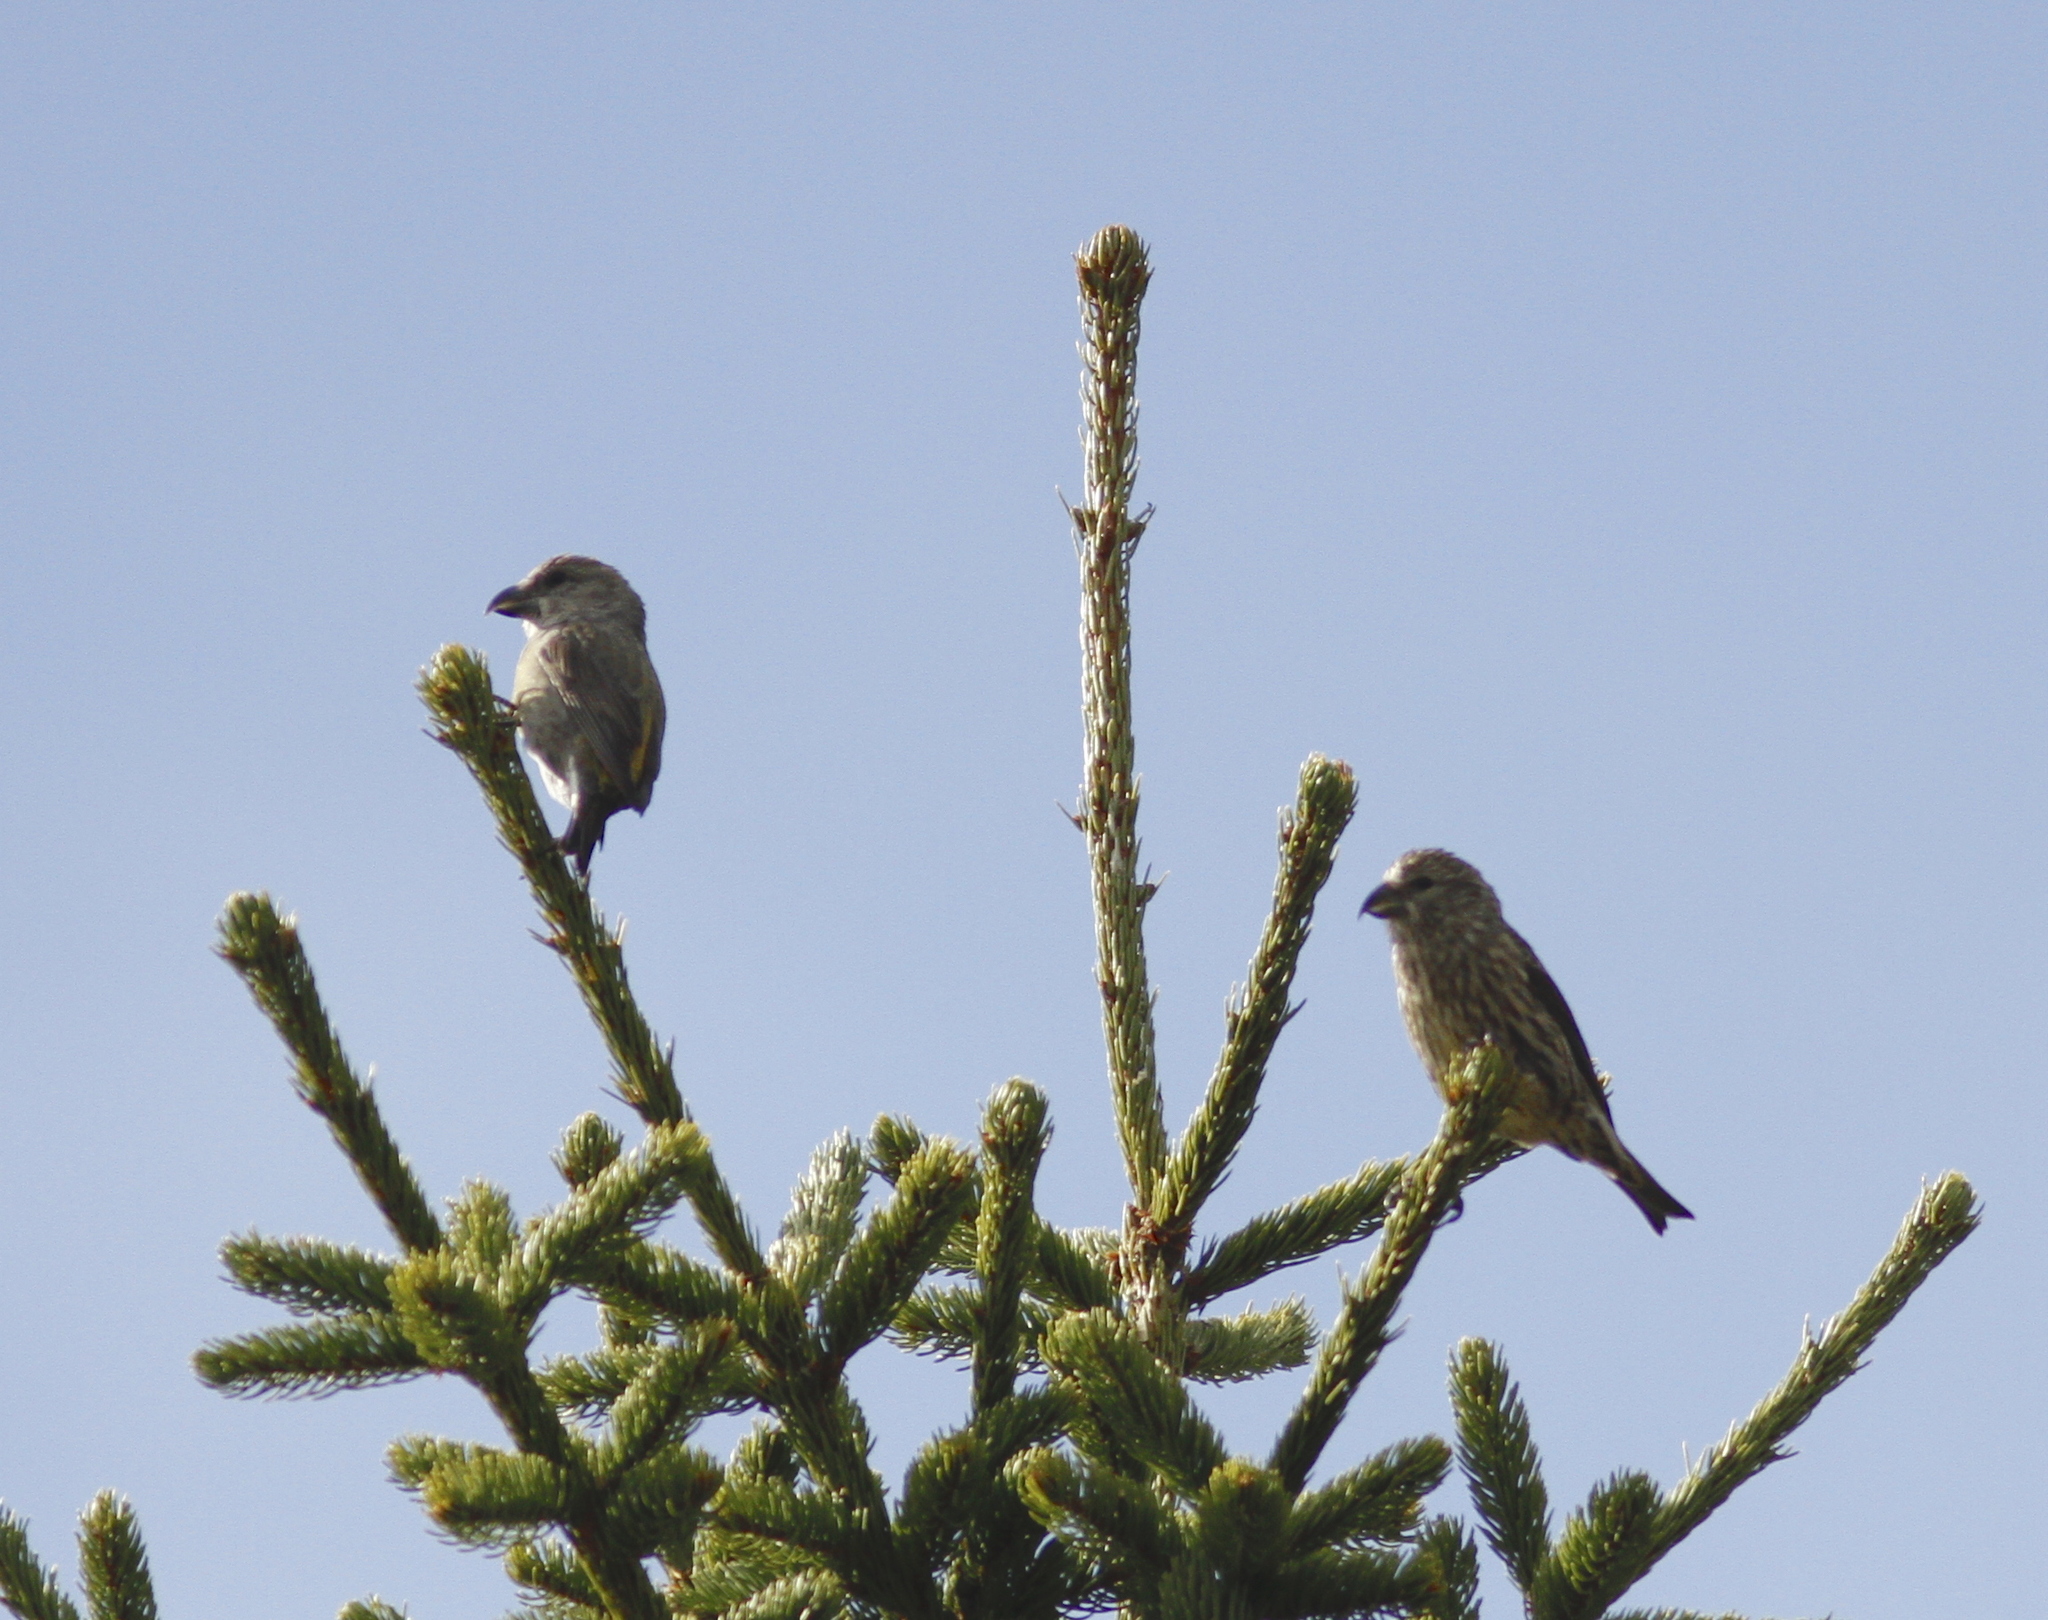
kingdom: Animalia
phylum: Chordata
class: Aves
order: Passeriformes
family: Fringillidae
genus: Loxia
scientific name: Loxia curvirostra
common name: Red crossbill
